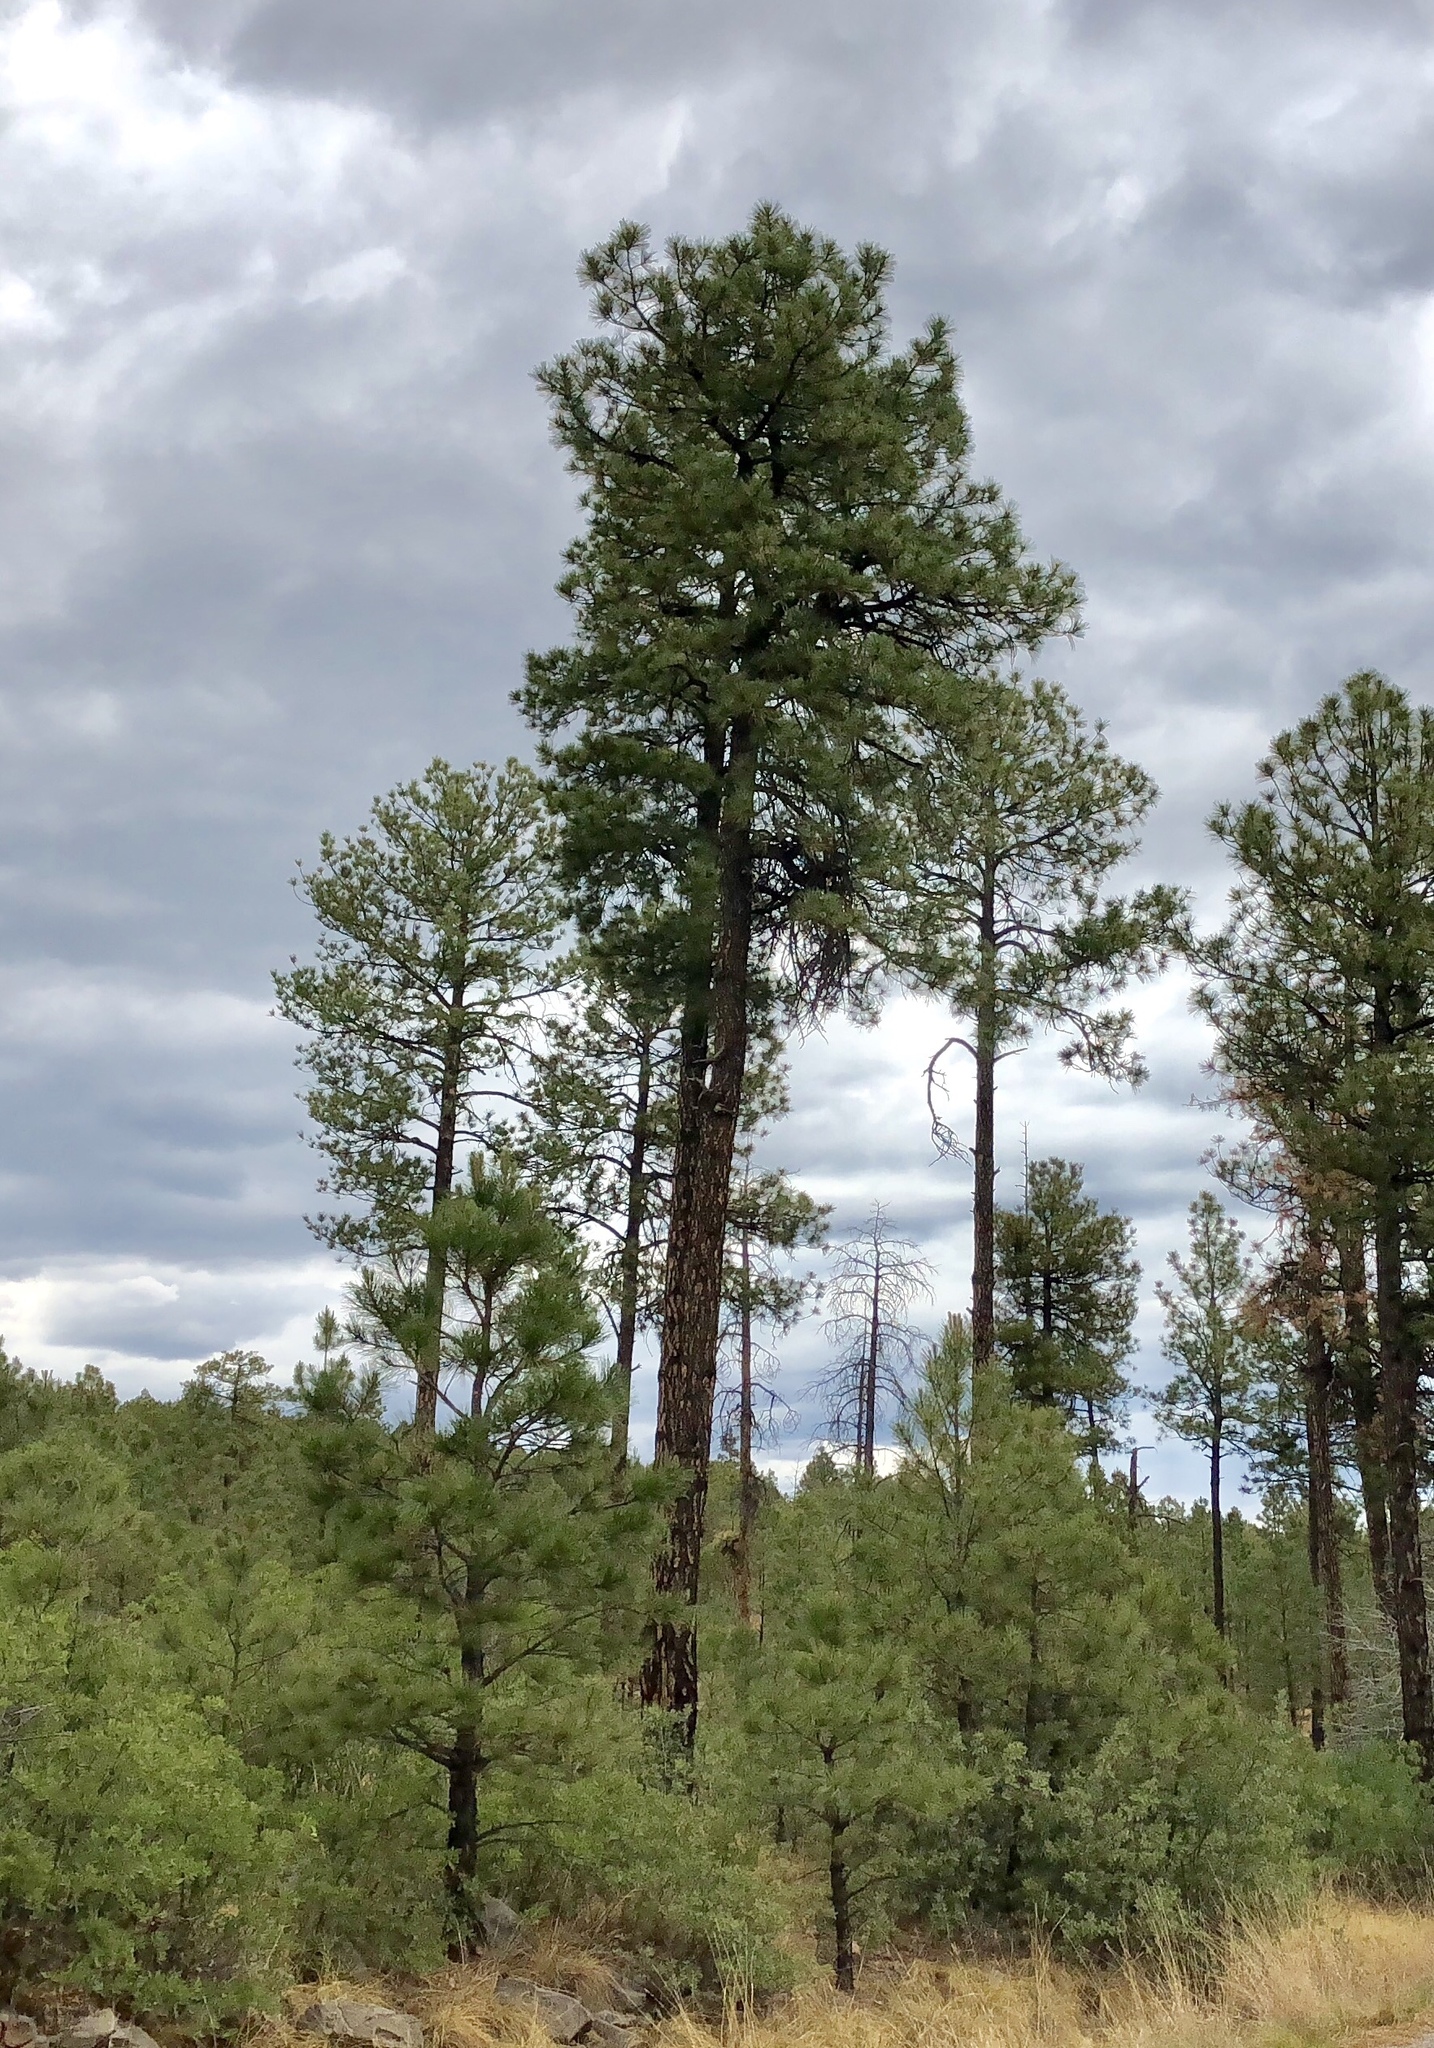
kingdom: Plantae
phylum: Tracheophyta
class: Pinopsida
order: Pinales
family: Pinaceae
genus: Pinus
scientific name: Pinus ponderosa
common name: Western yellow-pine
